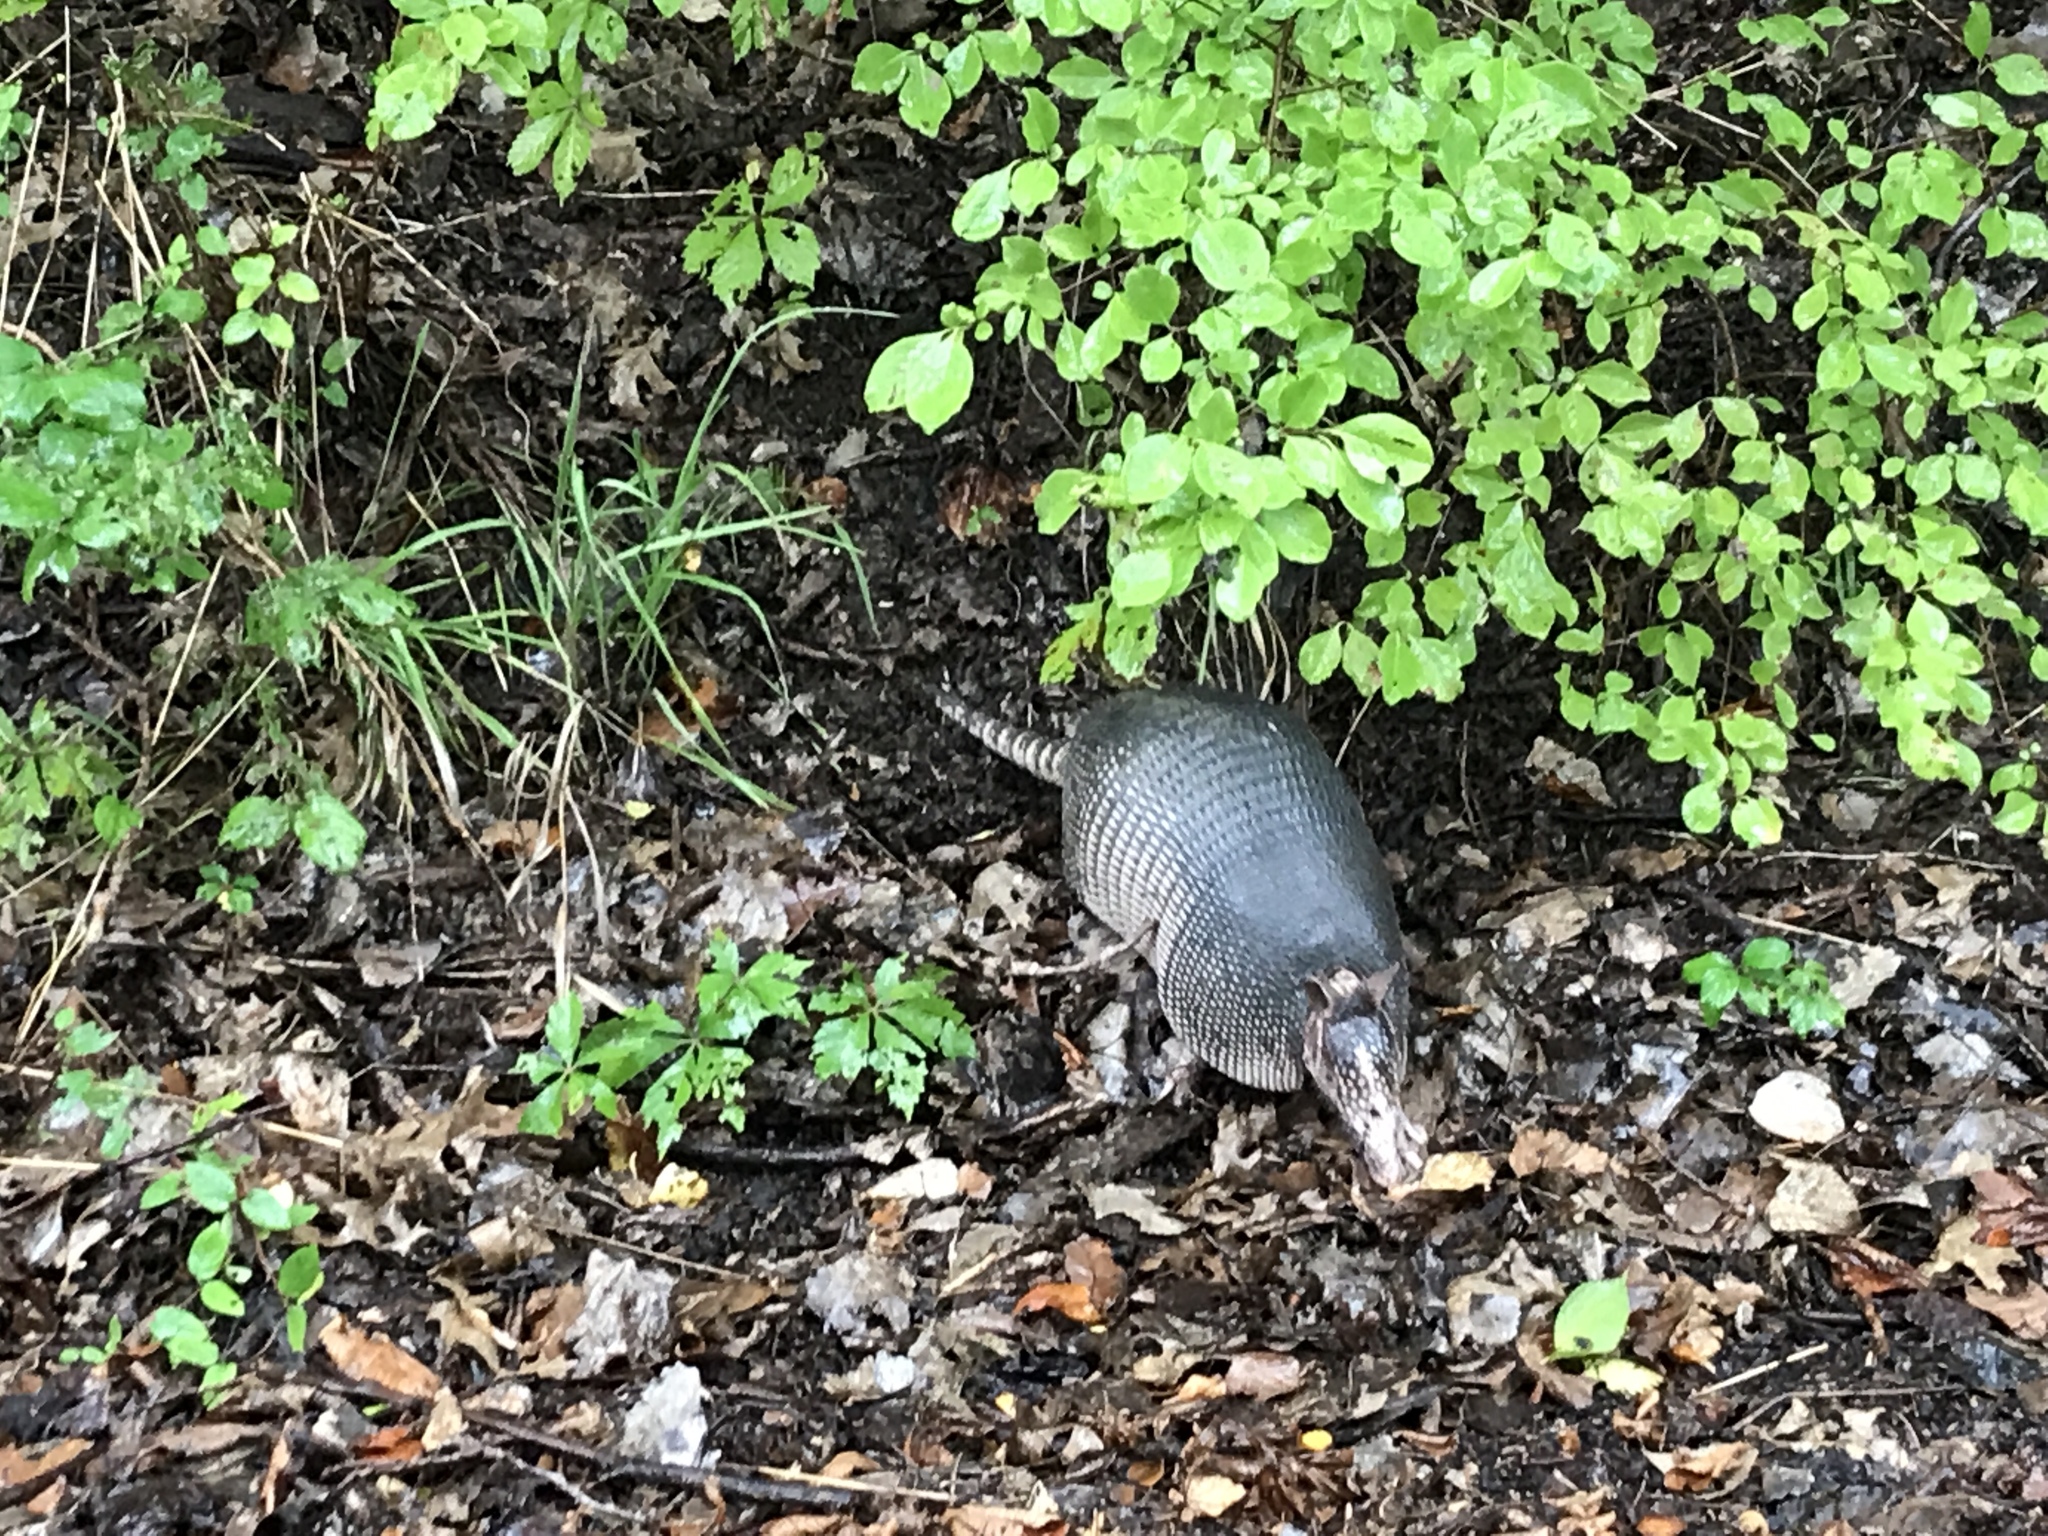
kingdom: Animalia
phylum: Chordata
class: Mammalia
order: Cingulata
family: Dasypodidae
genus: Dasypus
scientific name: Dasypus novemcinctus
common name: Nine-banded armadillo
